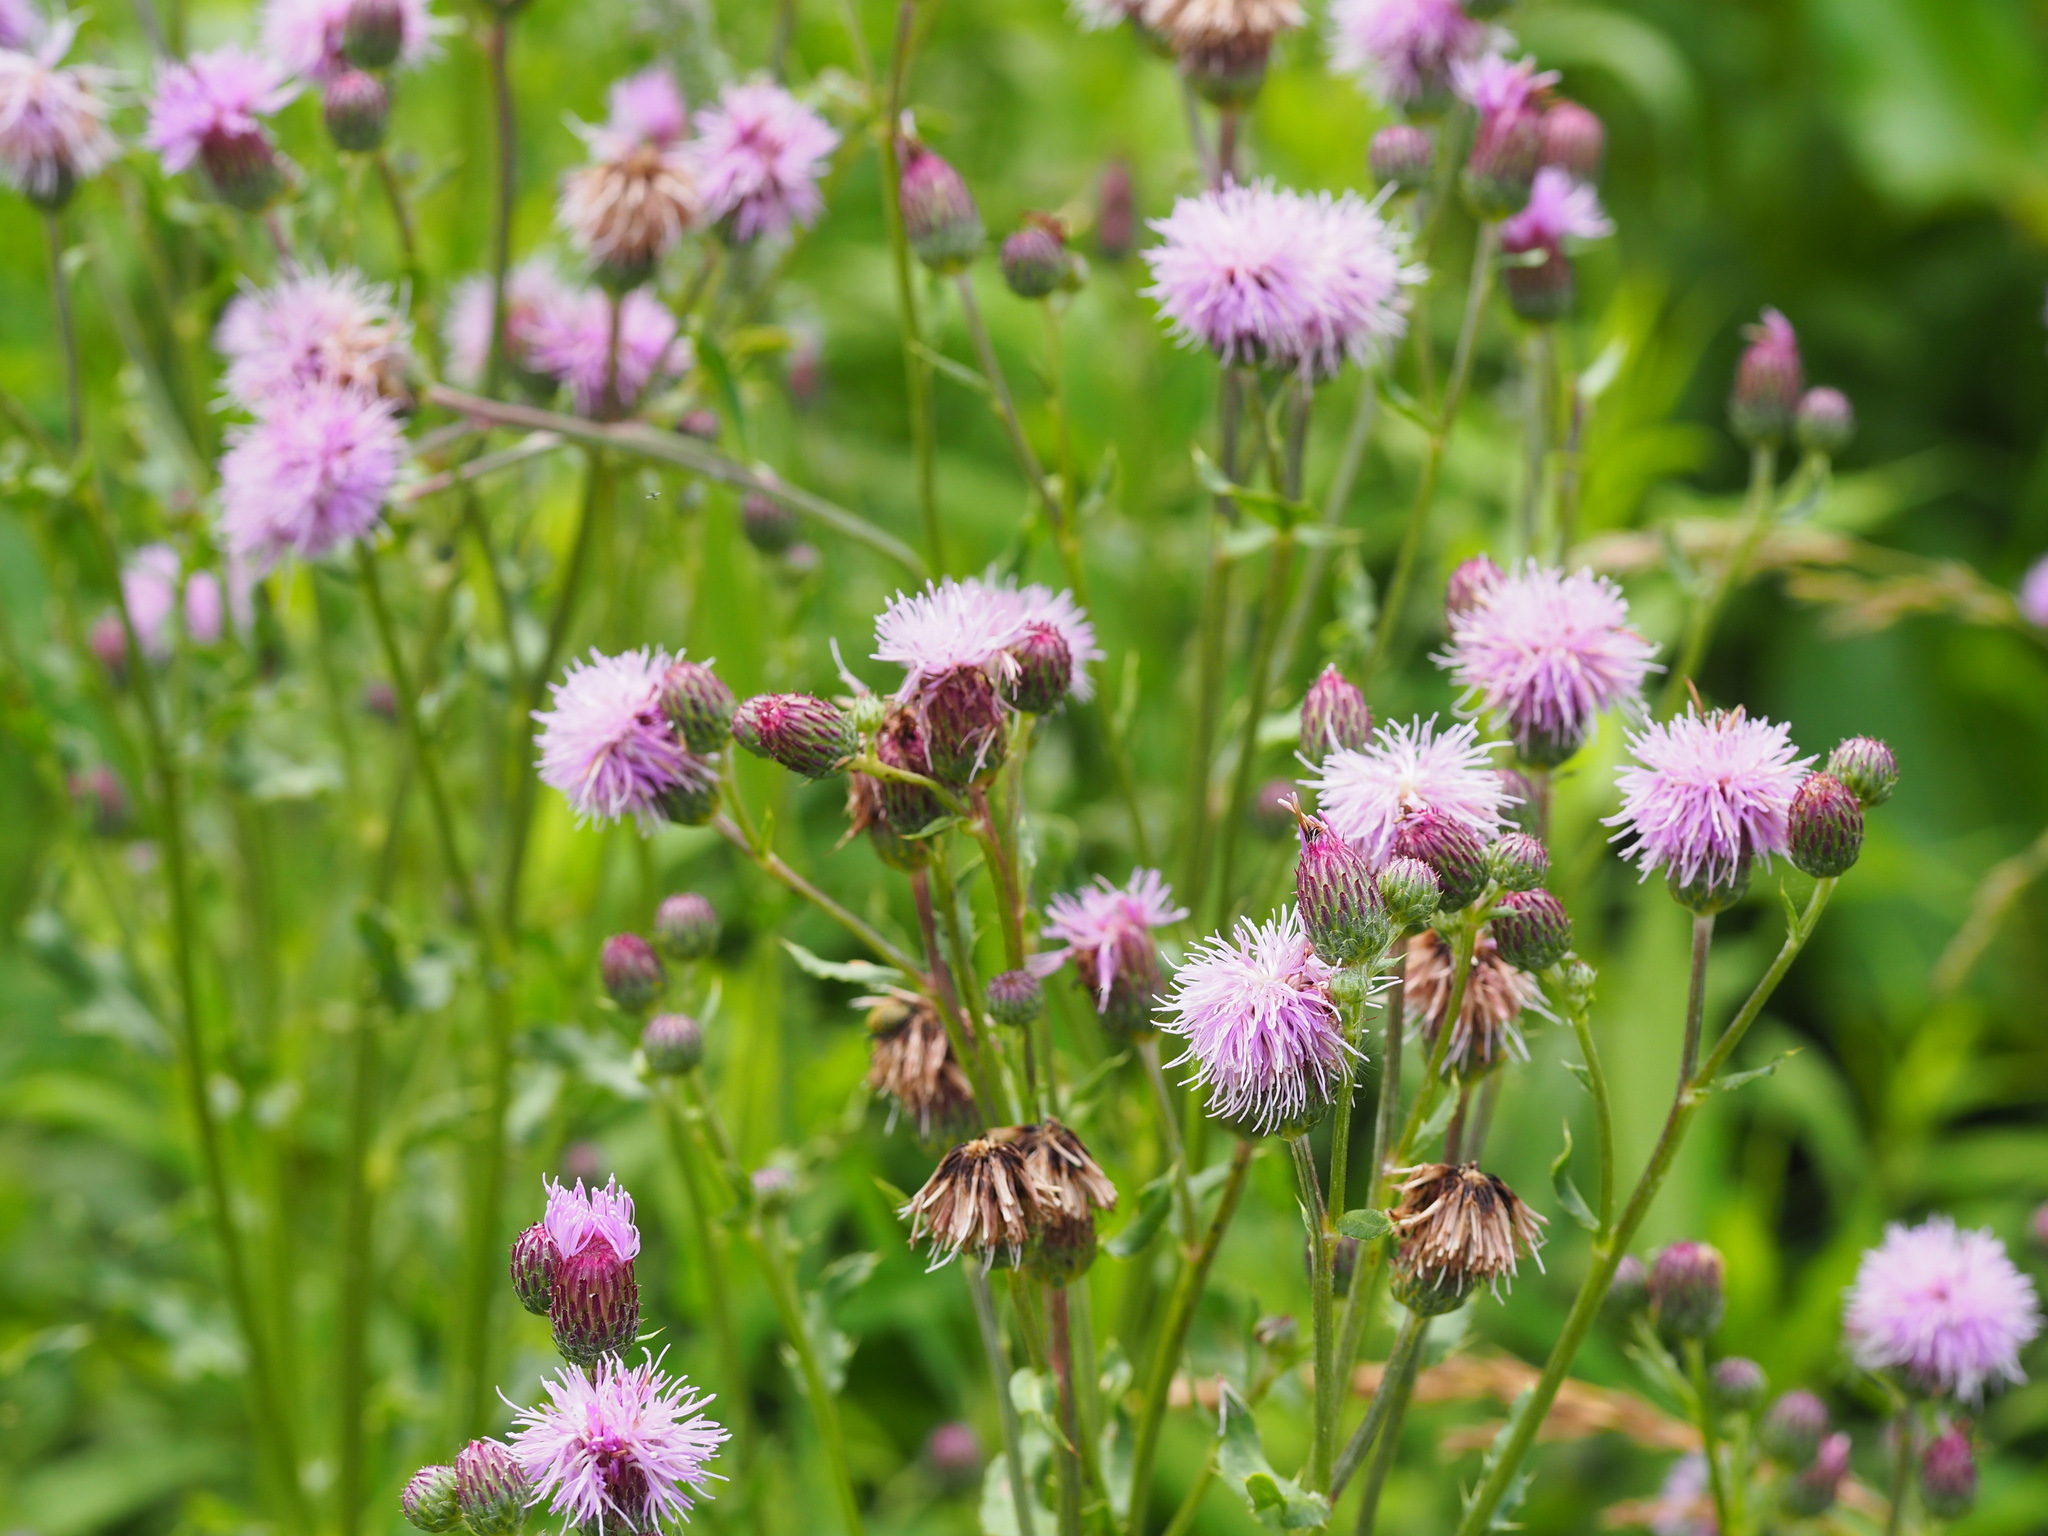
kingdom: Plantae
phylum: Tracheophyta
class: Magnoliopsida
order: Asterales
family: Asteraceae
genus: Cirsium
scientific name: Cirsium arvense
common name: Creeping thistle
